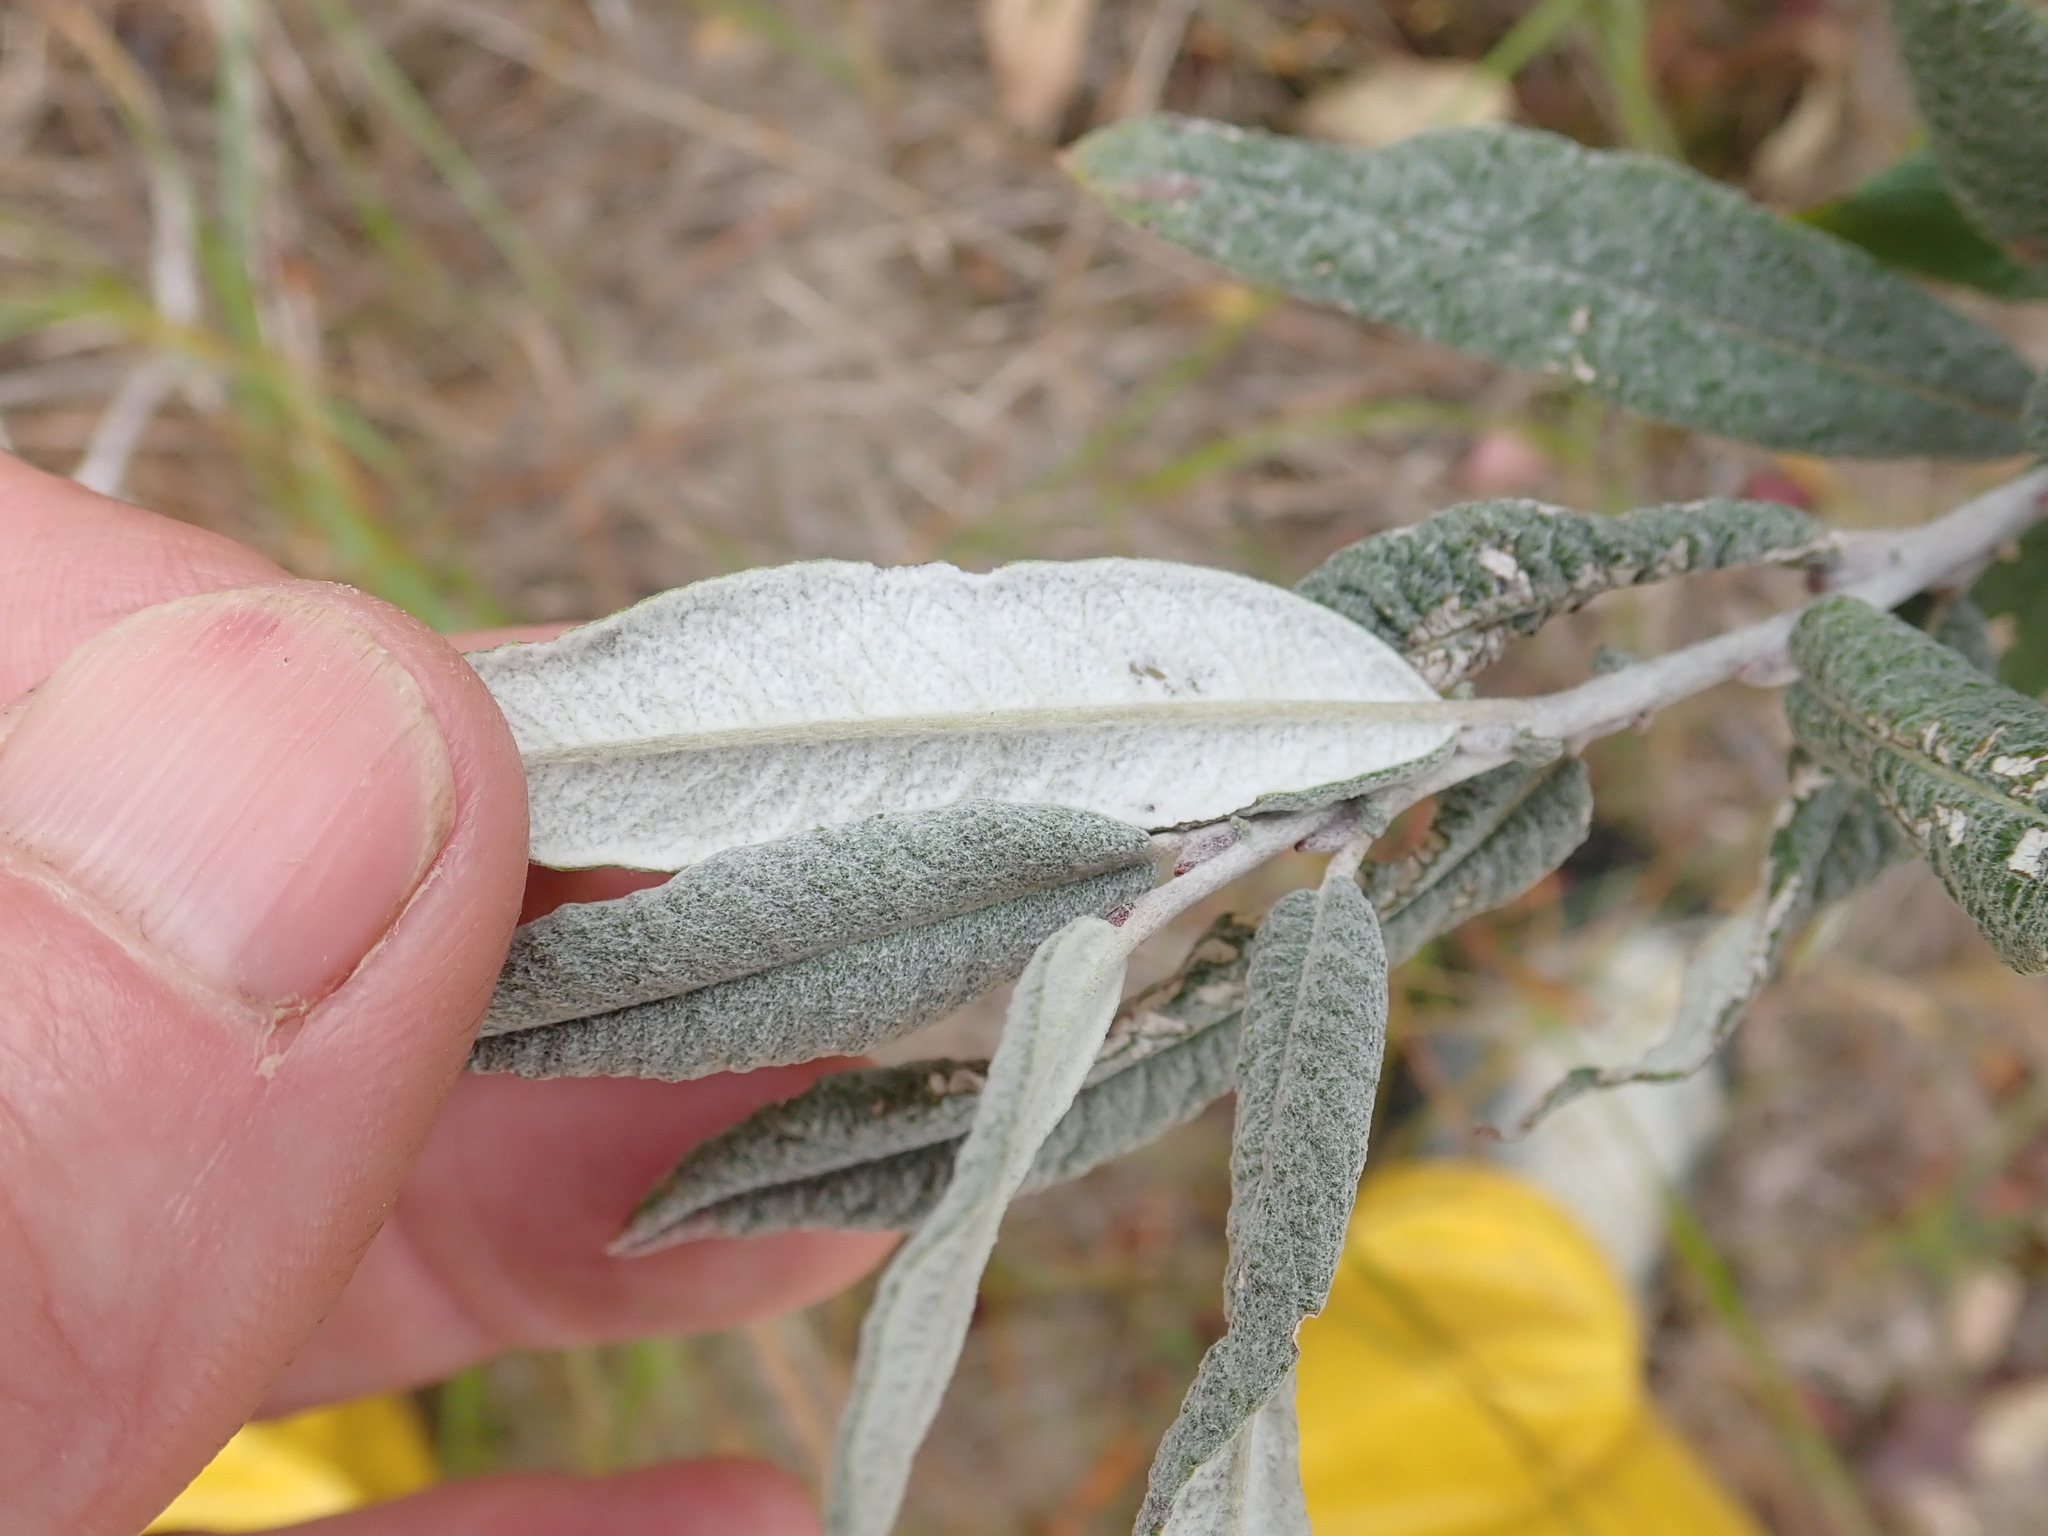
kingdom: Plantae
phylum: Tracheophyta
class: Magnoliopsida
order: Malpighiales
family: Salicaceae
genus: Salix
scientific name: Salix candida
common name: Hoary willow
